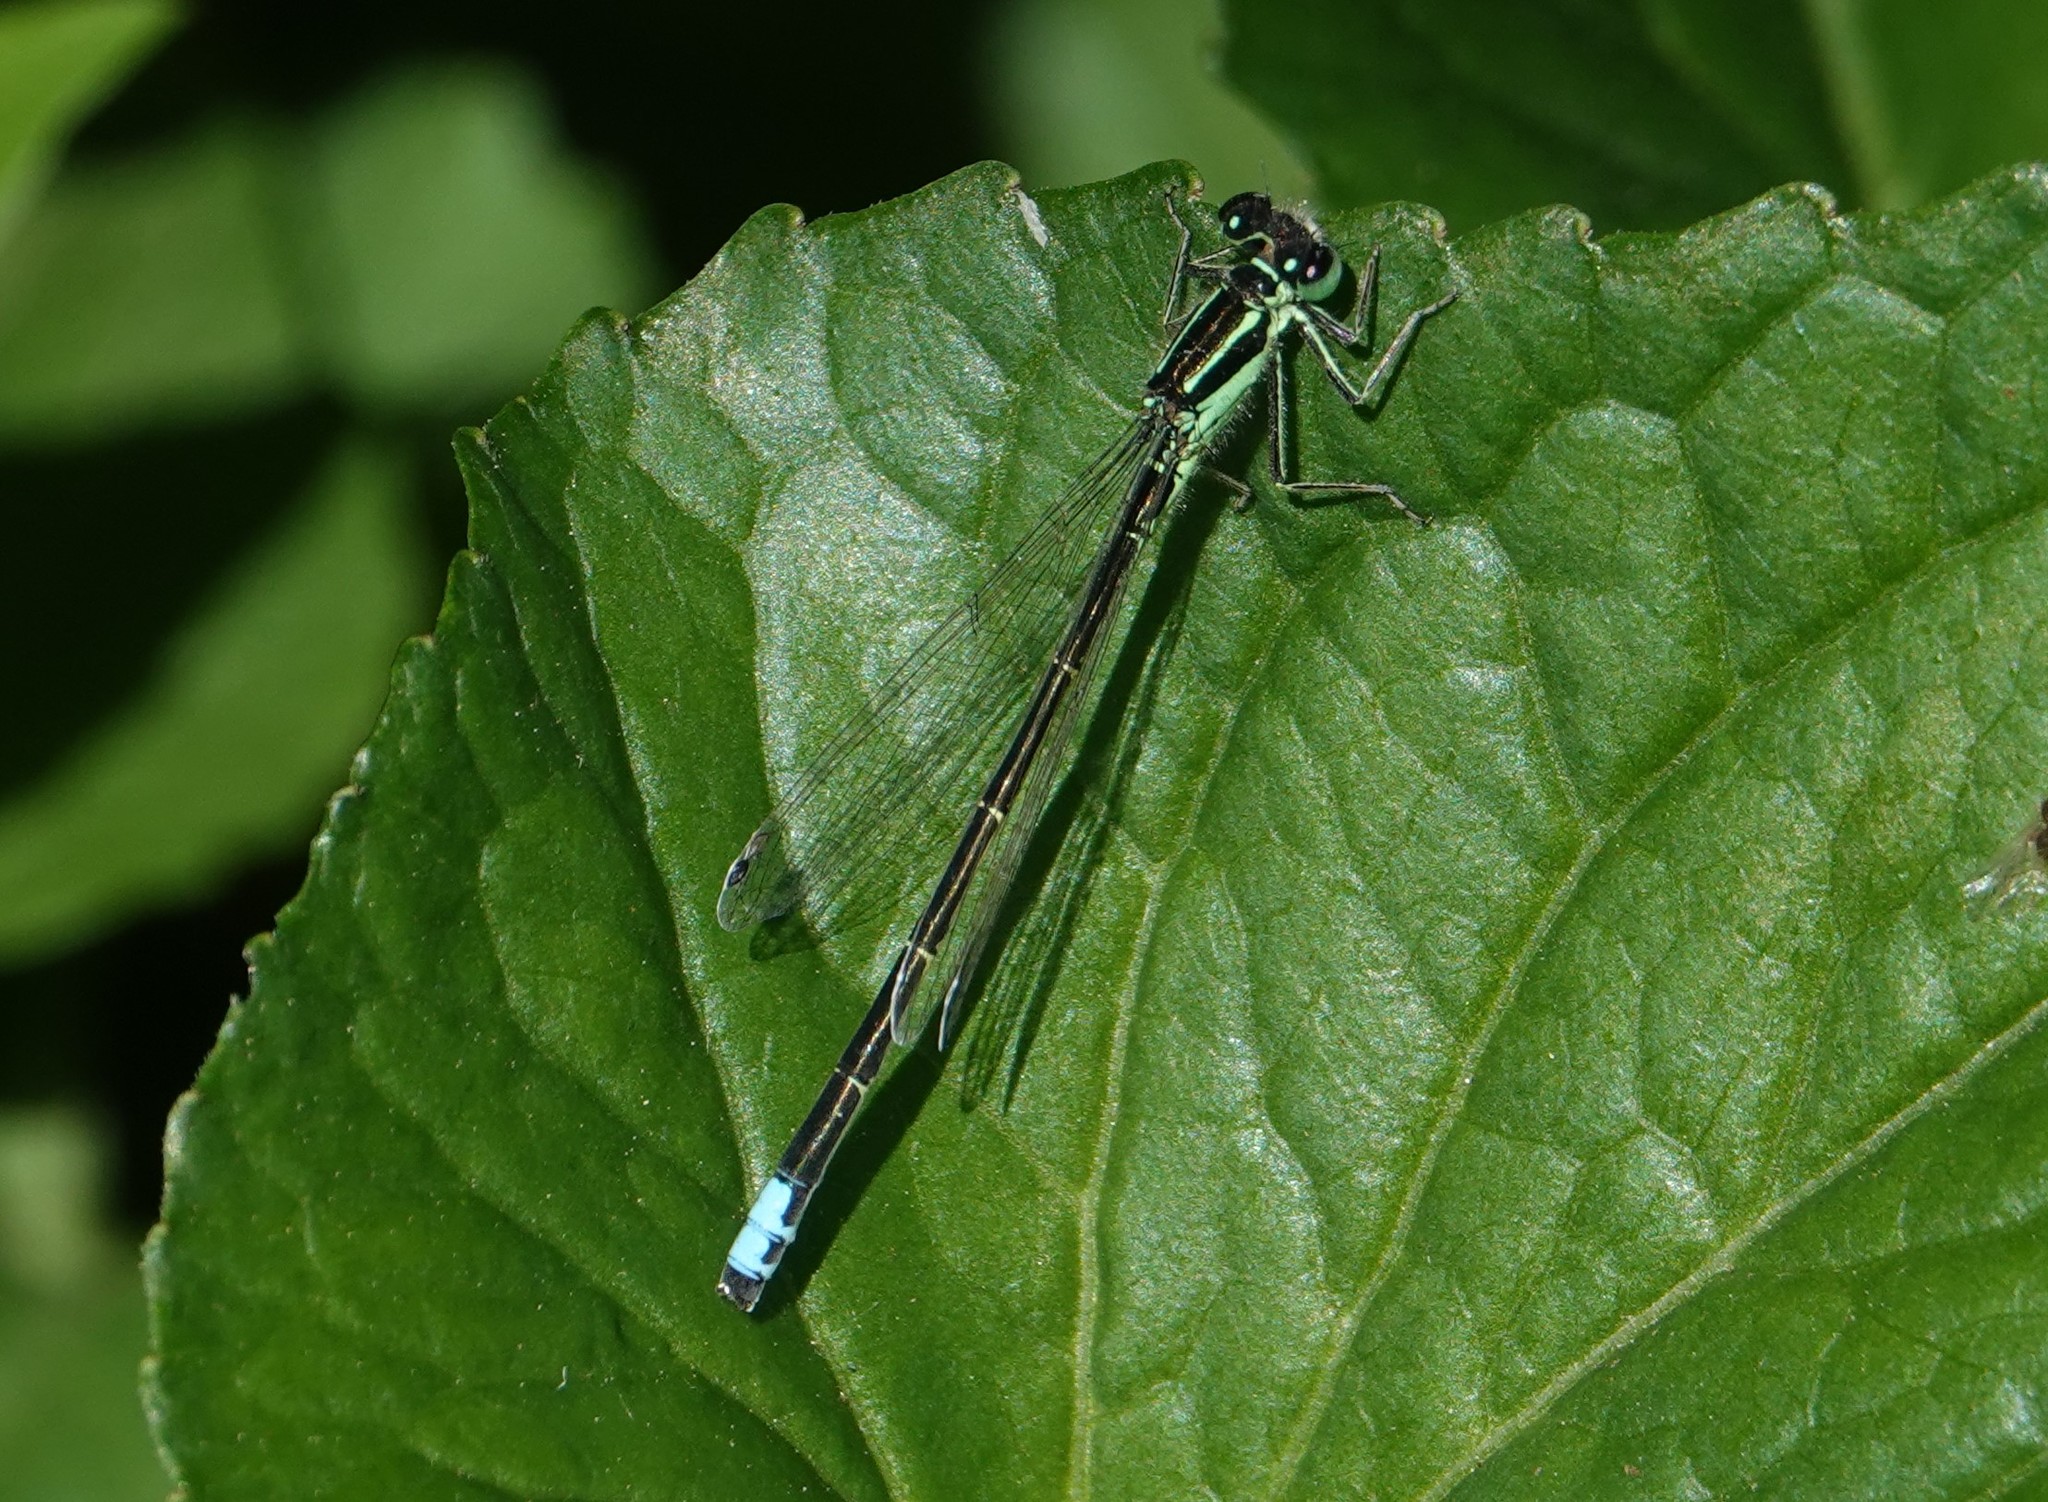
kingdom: Animalia
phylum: Arthropoda
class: Insecta
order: Odonata
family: Coenagrionidae
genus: Ischnura
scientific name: Ischnura verticalis
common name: Eastern forktail
